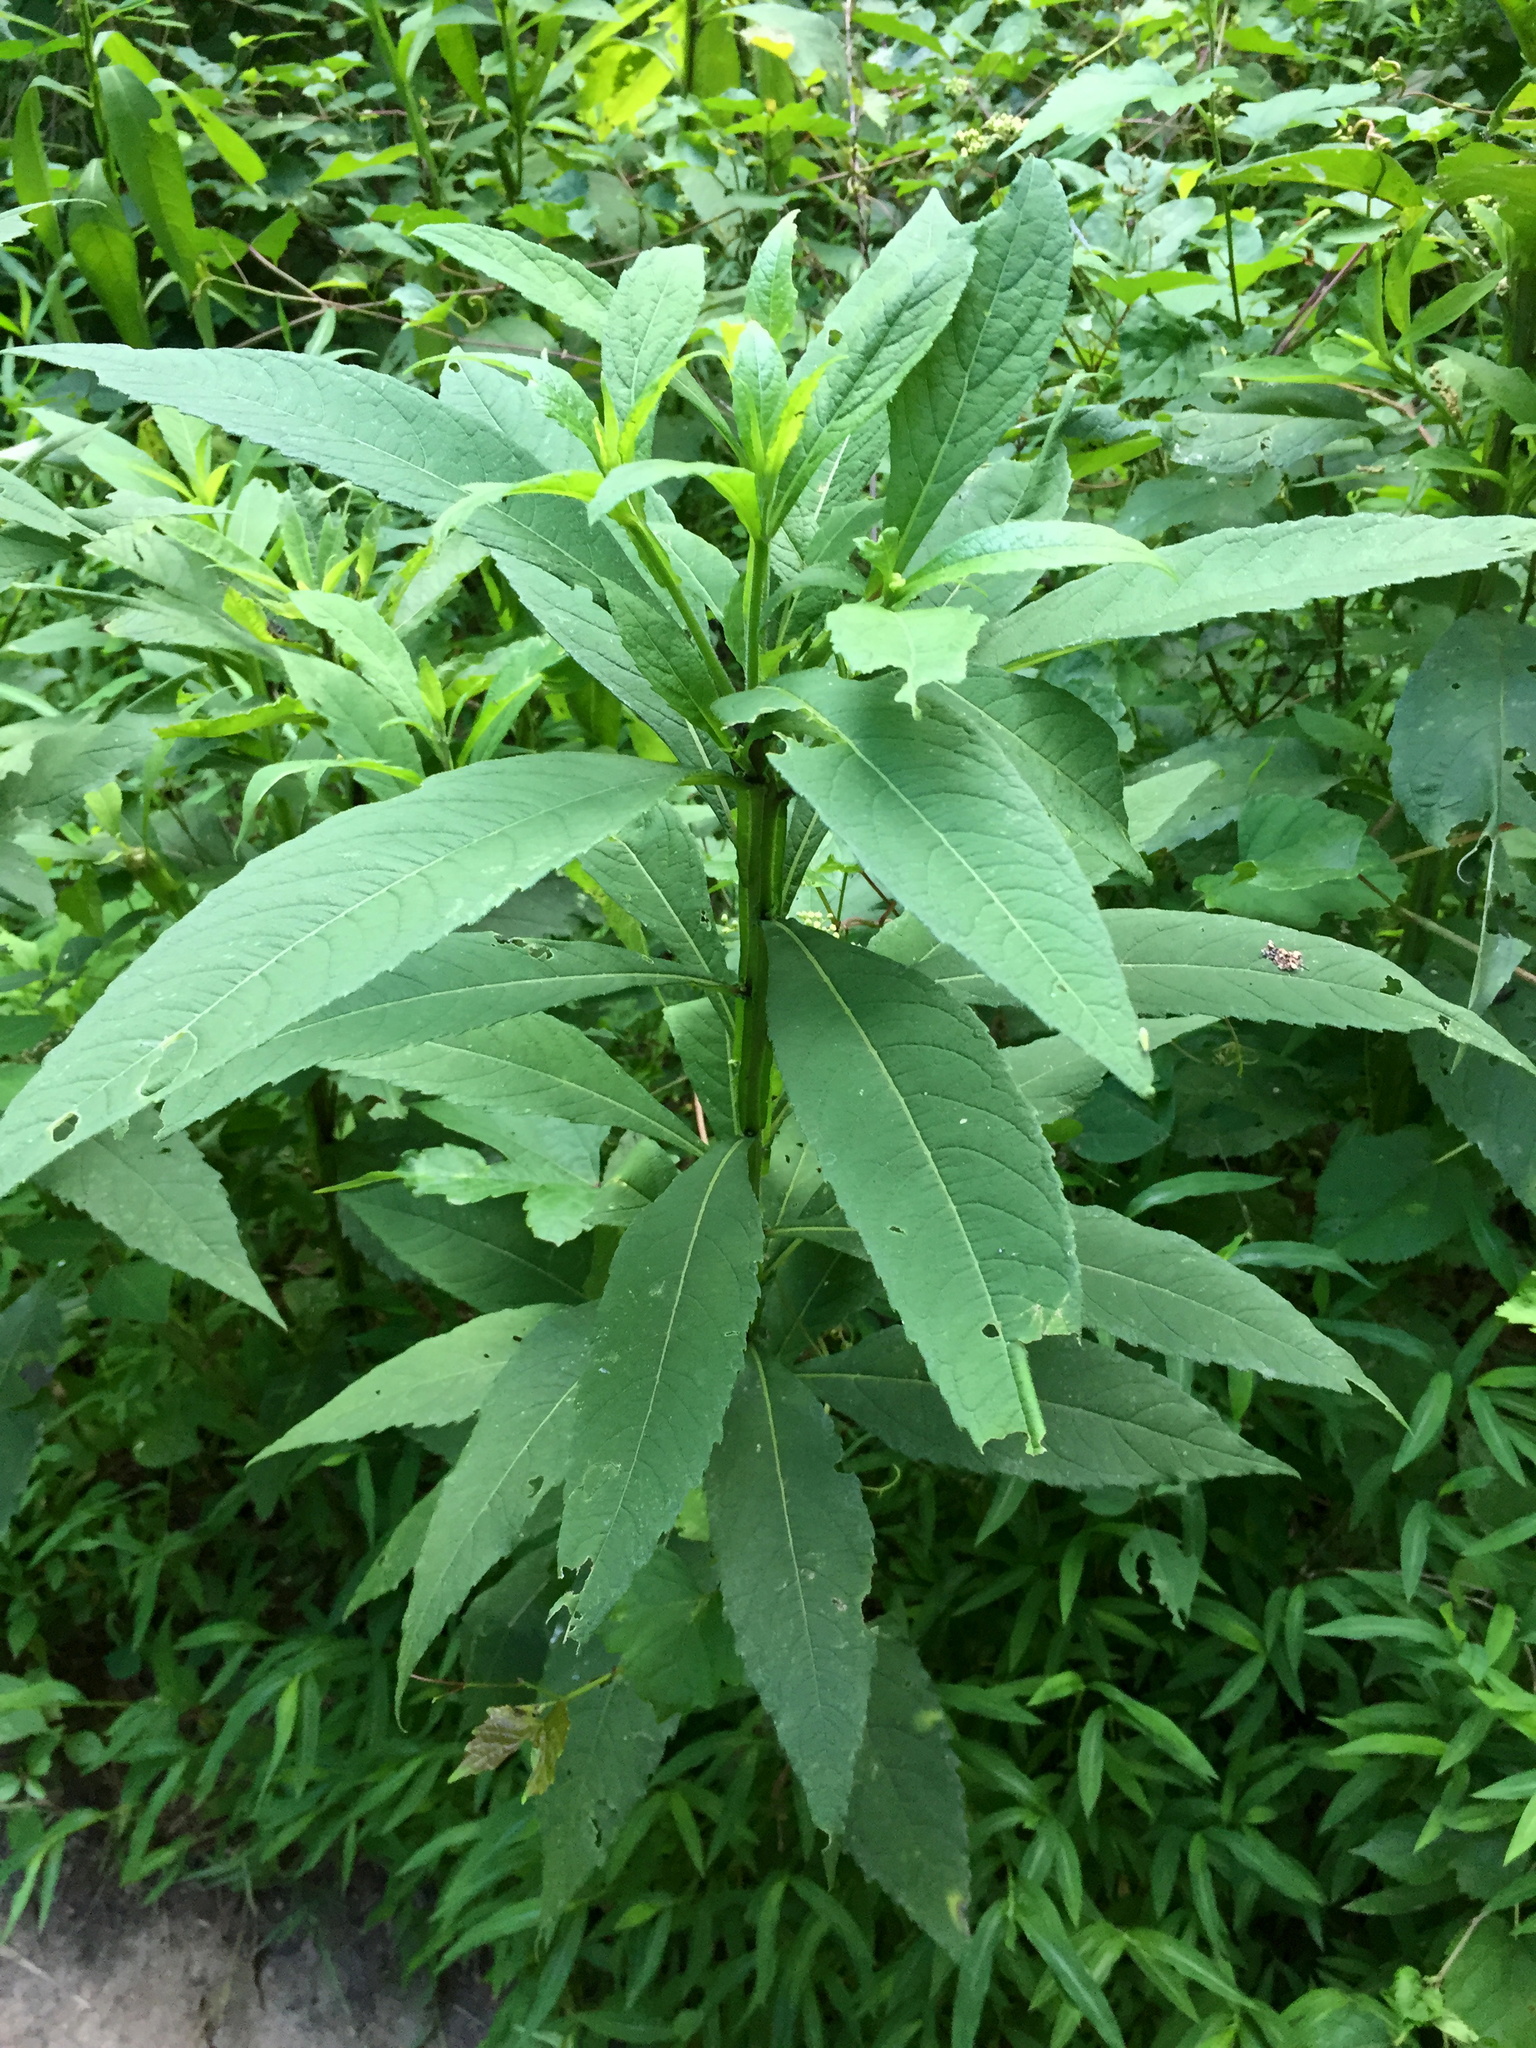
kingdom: Plantae
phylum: Tracheophyta
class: Magnoliopsida
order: Asterales
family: Asteraceae
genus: Verbesina
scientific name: Verbesina alternifolia
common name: Wingstem
